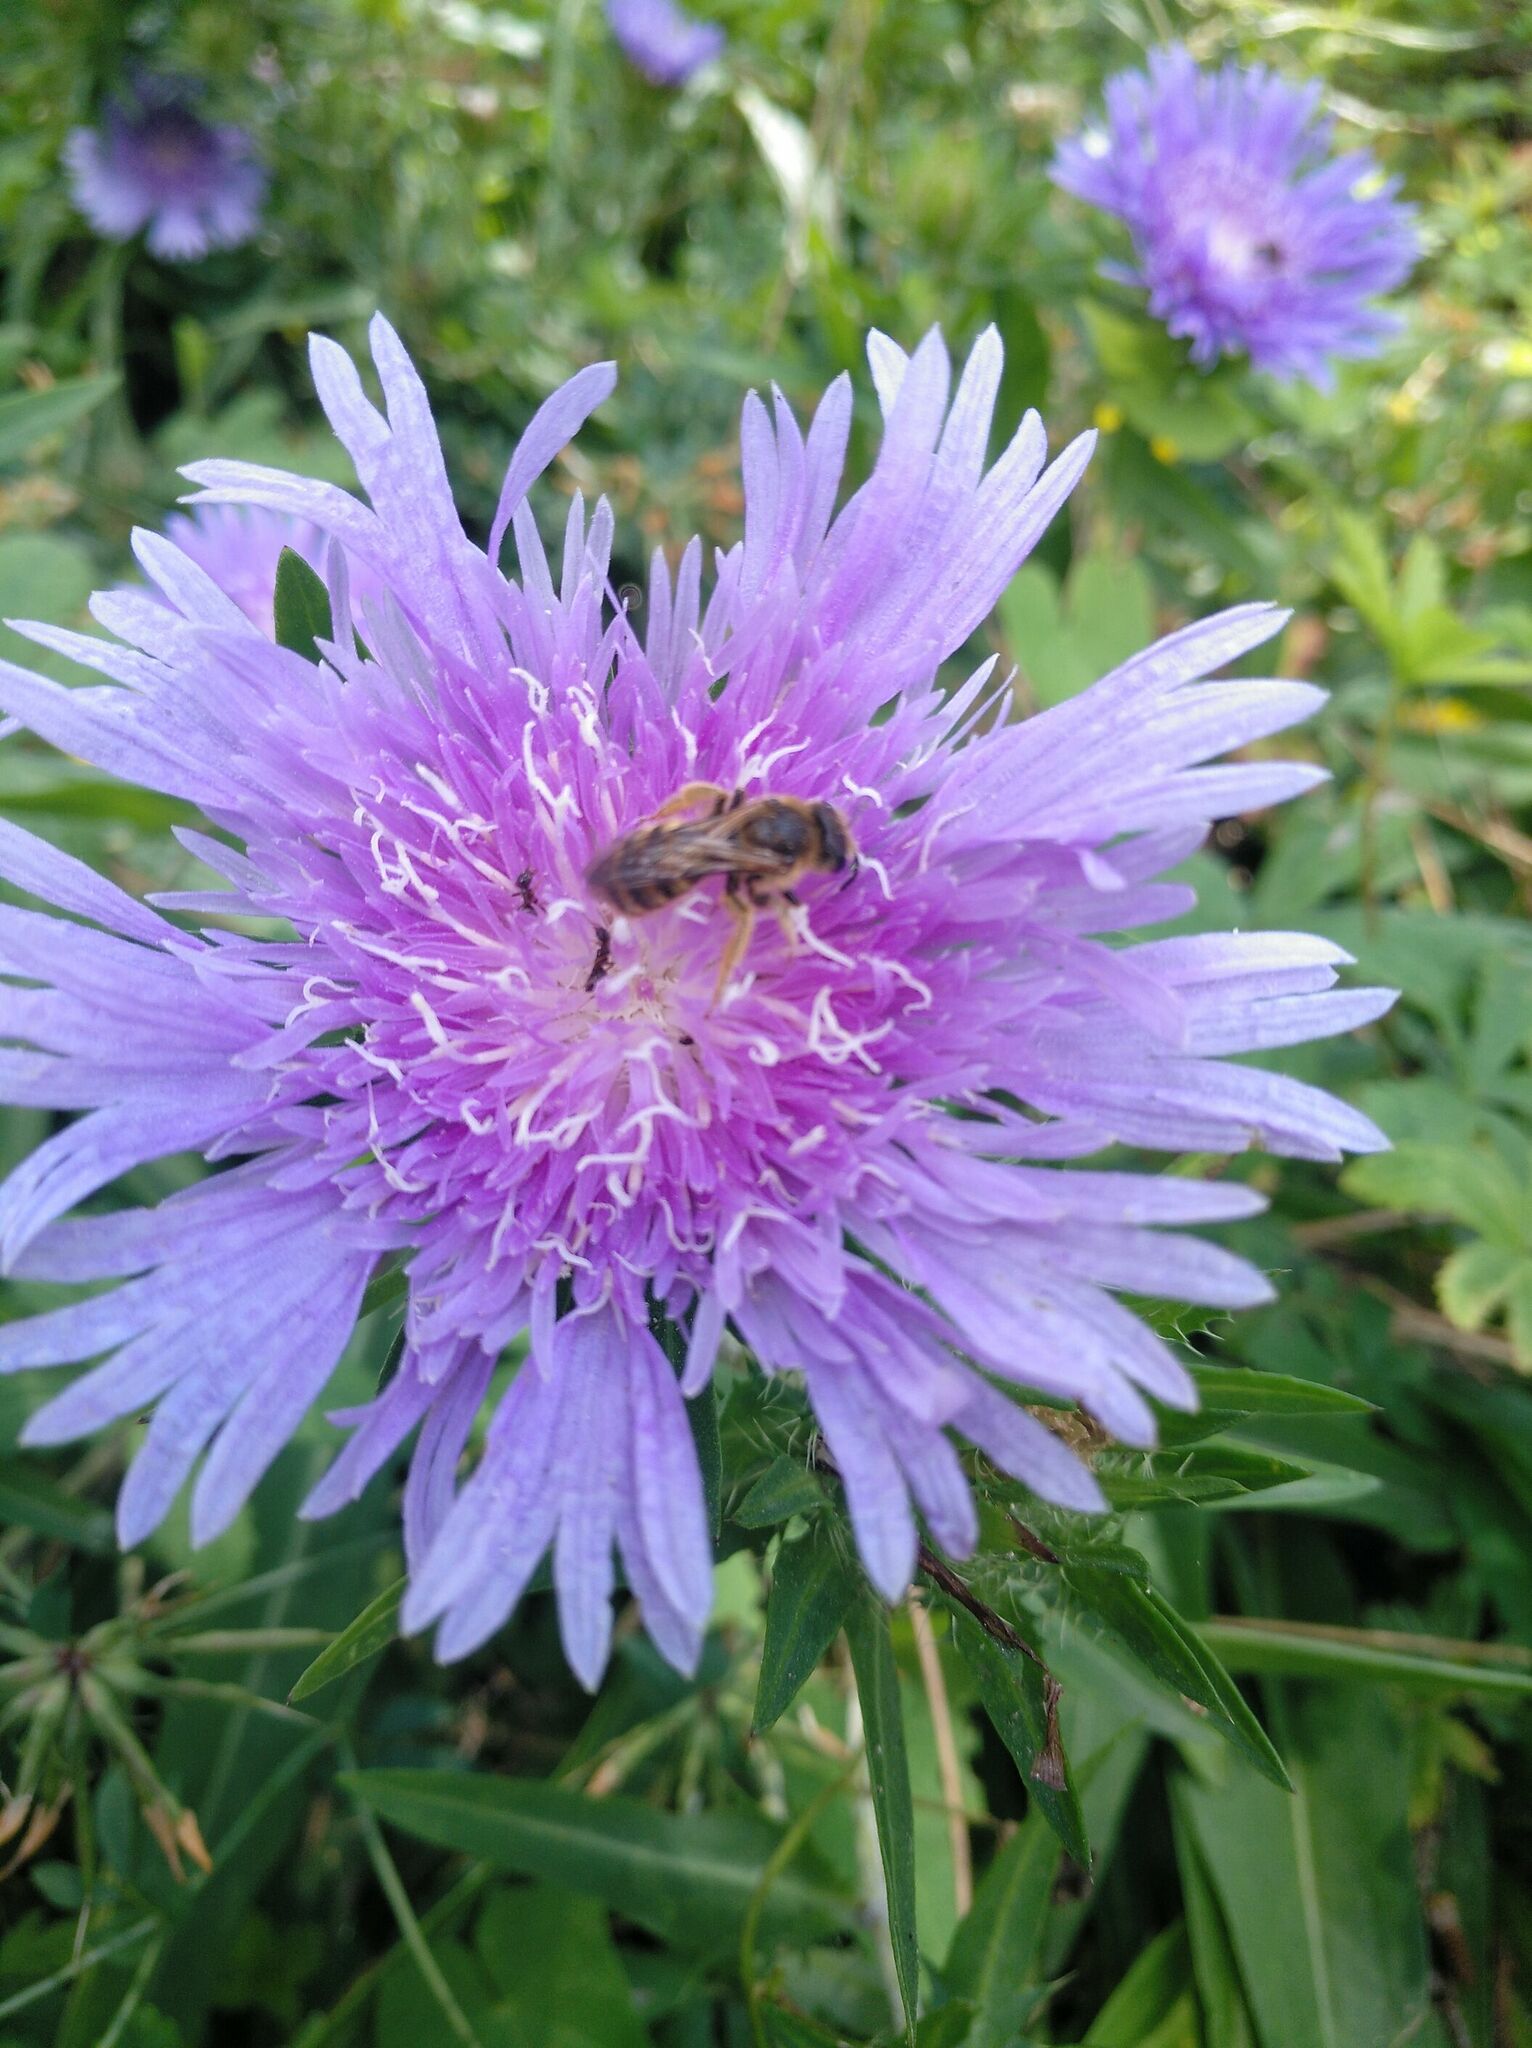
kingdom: Animalia
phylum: Arthropoda
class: Insecta
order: Hymenoptera
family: Halictidae
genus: Halictus
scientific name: Halictus scabiosae
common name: Great banded furrow bee
